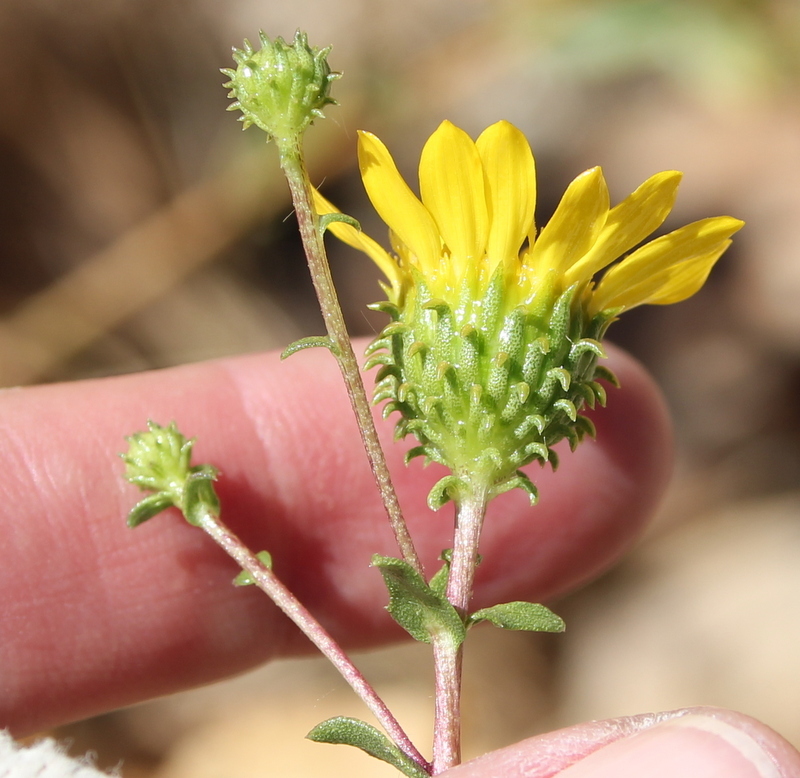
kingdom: Plantae
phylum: Tracheophyta
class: Magnoliopsida
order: Asterales
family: Asteraceae
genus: Grindelia
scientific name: Grindelia hirsutula
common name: Hairy gumweed
